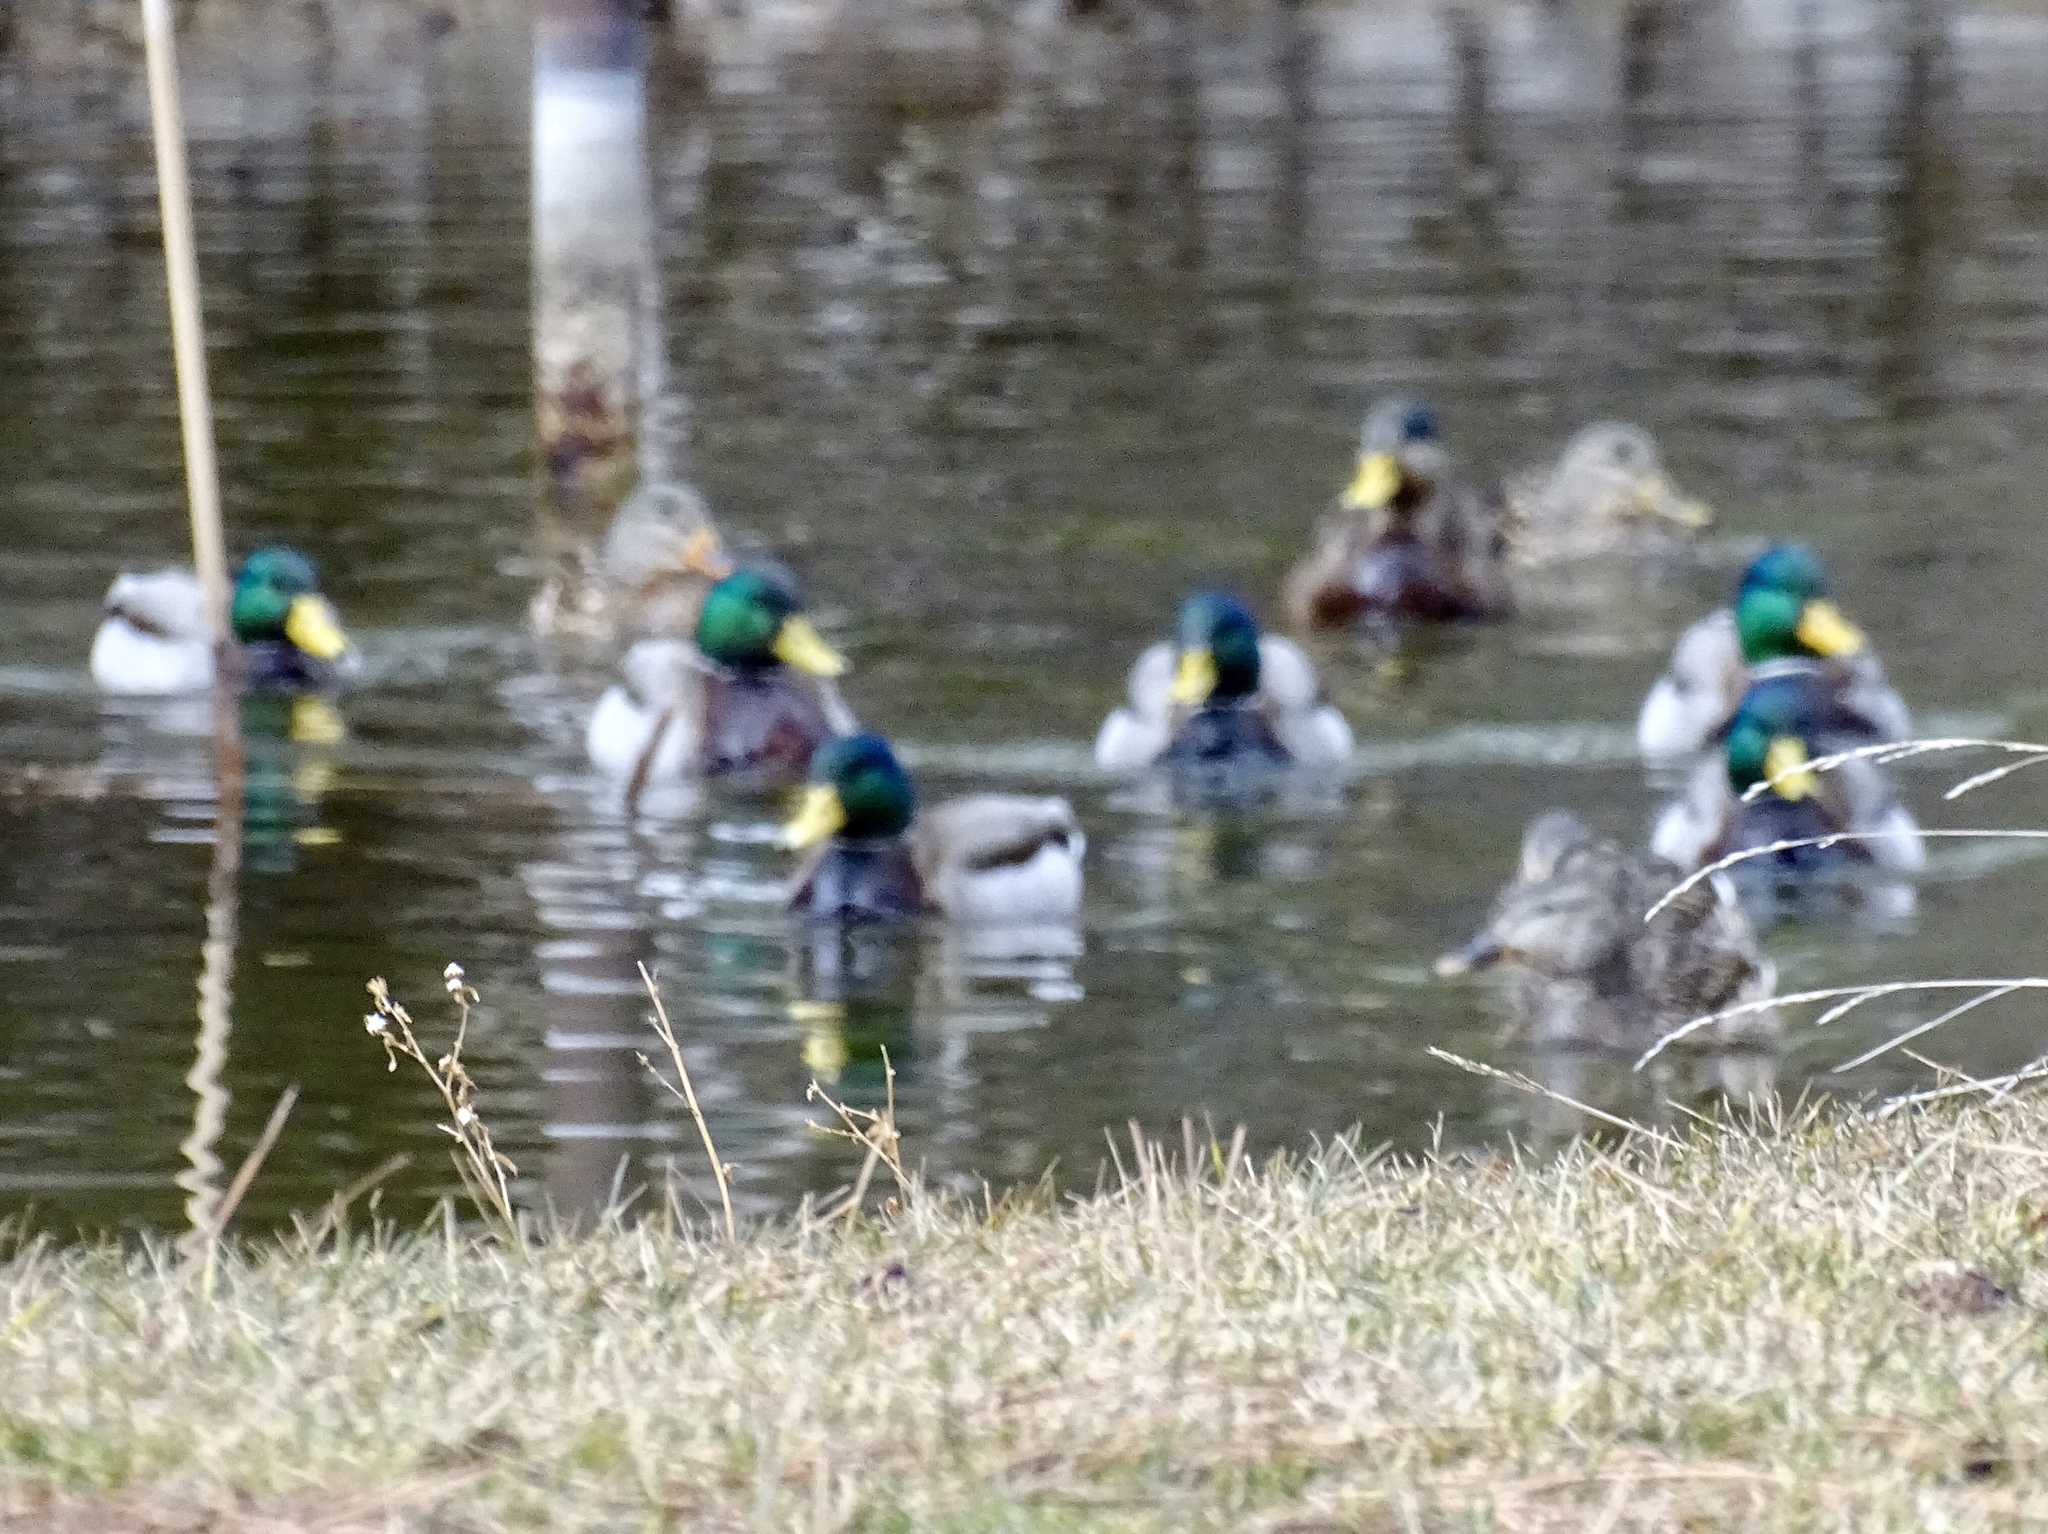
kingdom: Animalia
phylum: Chordata
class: Aves
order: Anseriformes
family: Anatidae
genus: Anas
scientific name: Anas platyrhynchos
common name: Mallard
